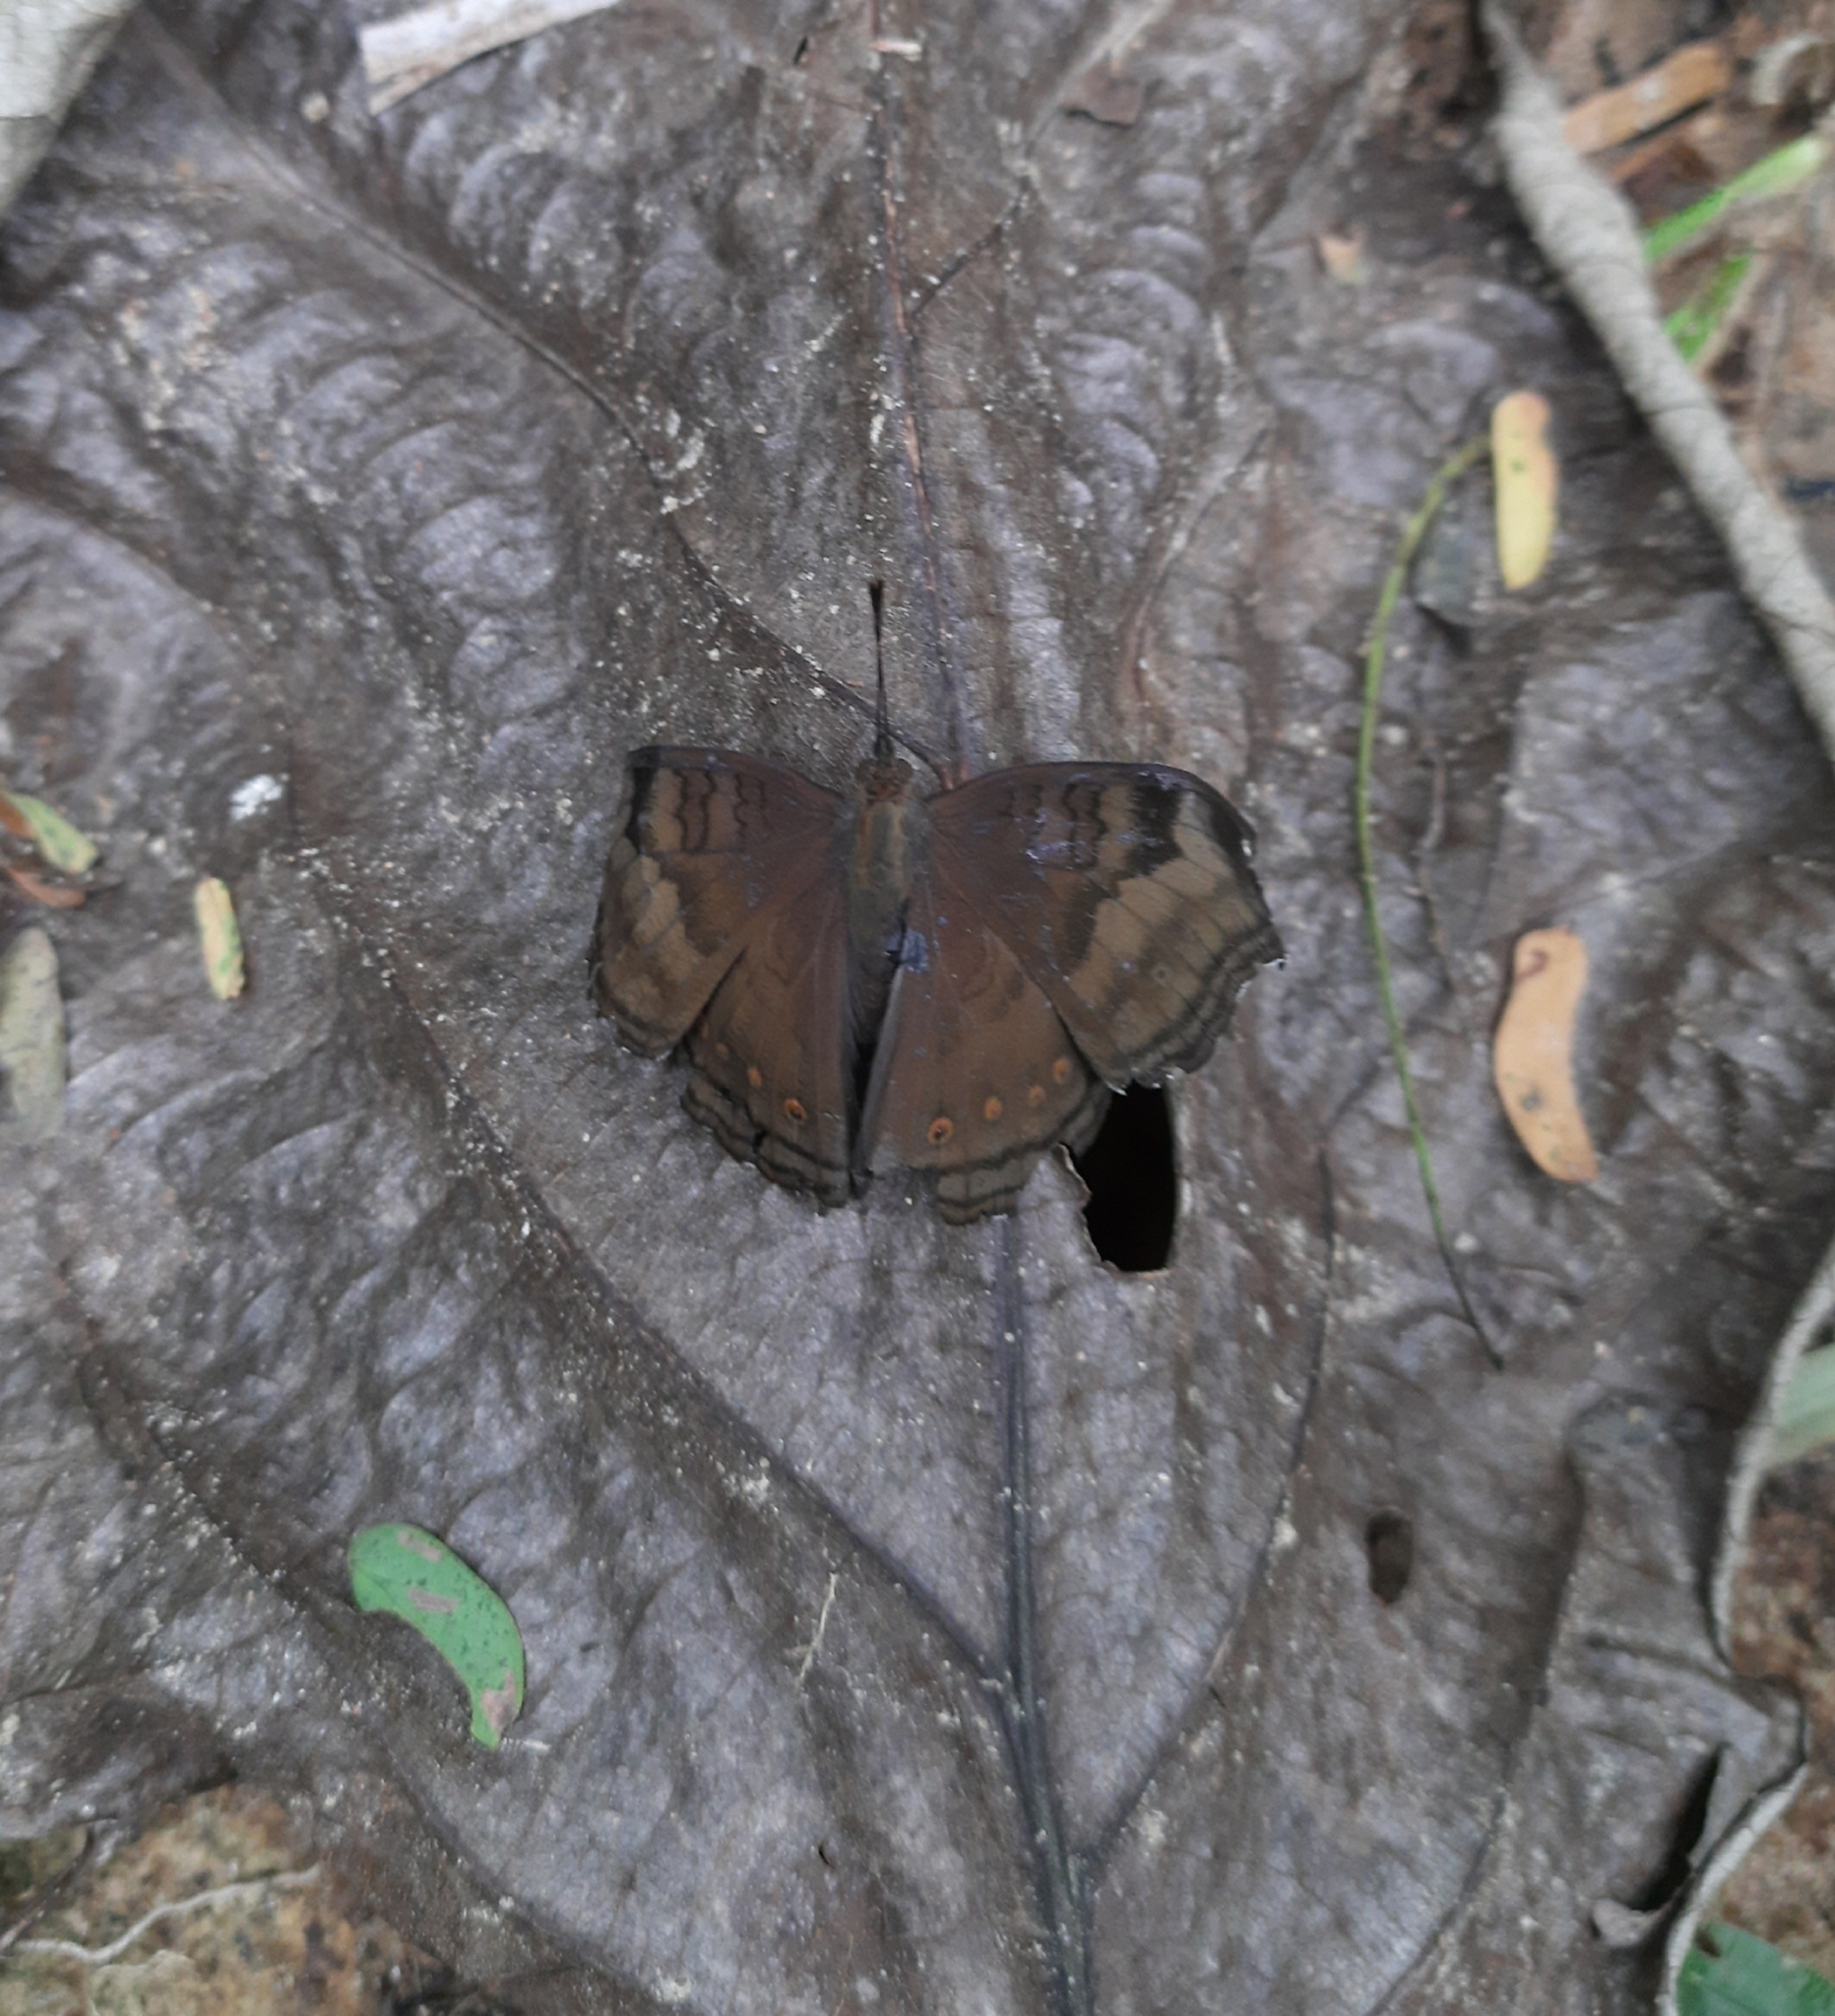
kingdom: Animalia
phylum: Arthropoda
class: Insecta
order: Lepidoptera
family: Nymphalidae
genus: Junonia
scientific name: Junonia iphita
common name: Chocolate pansy
